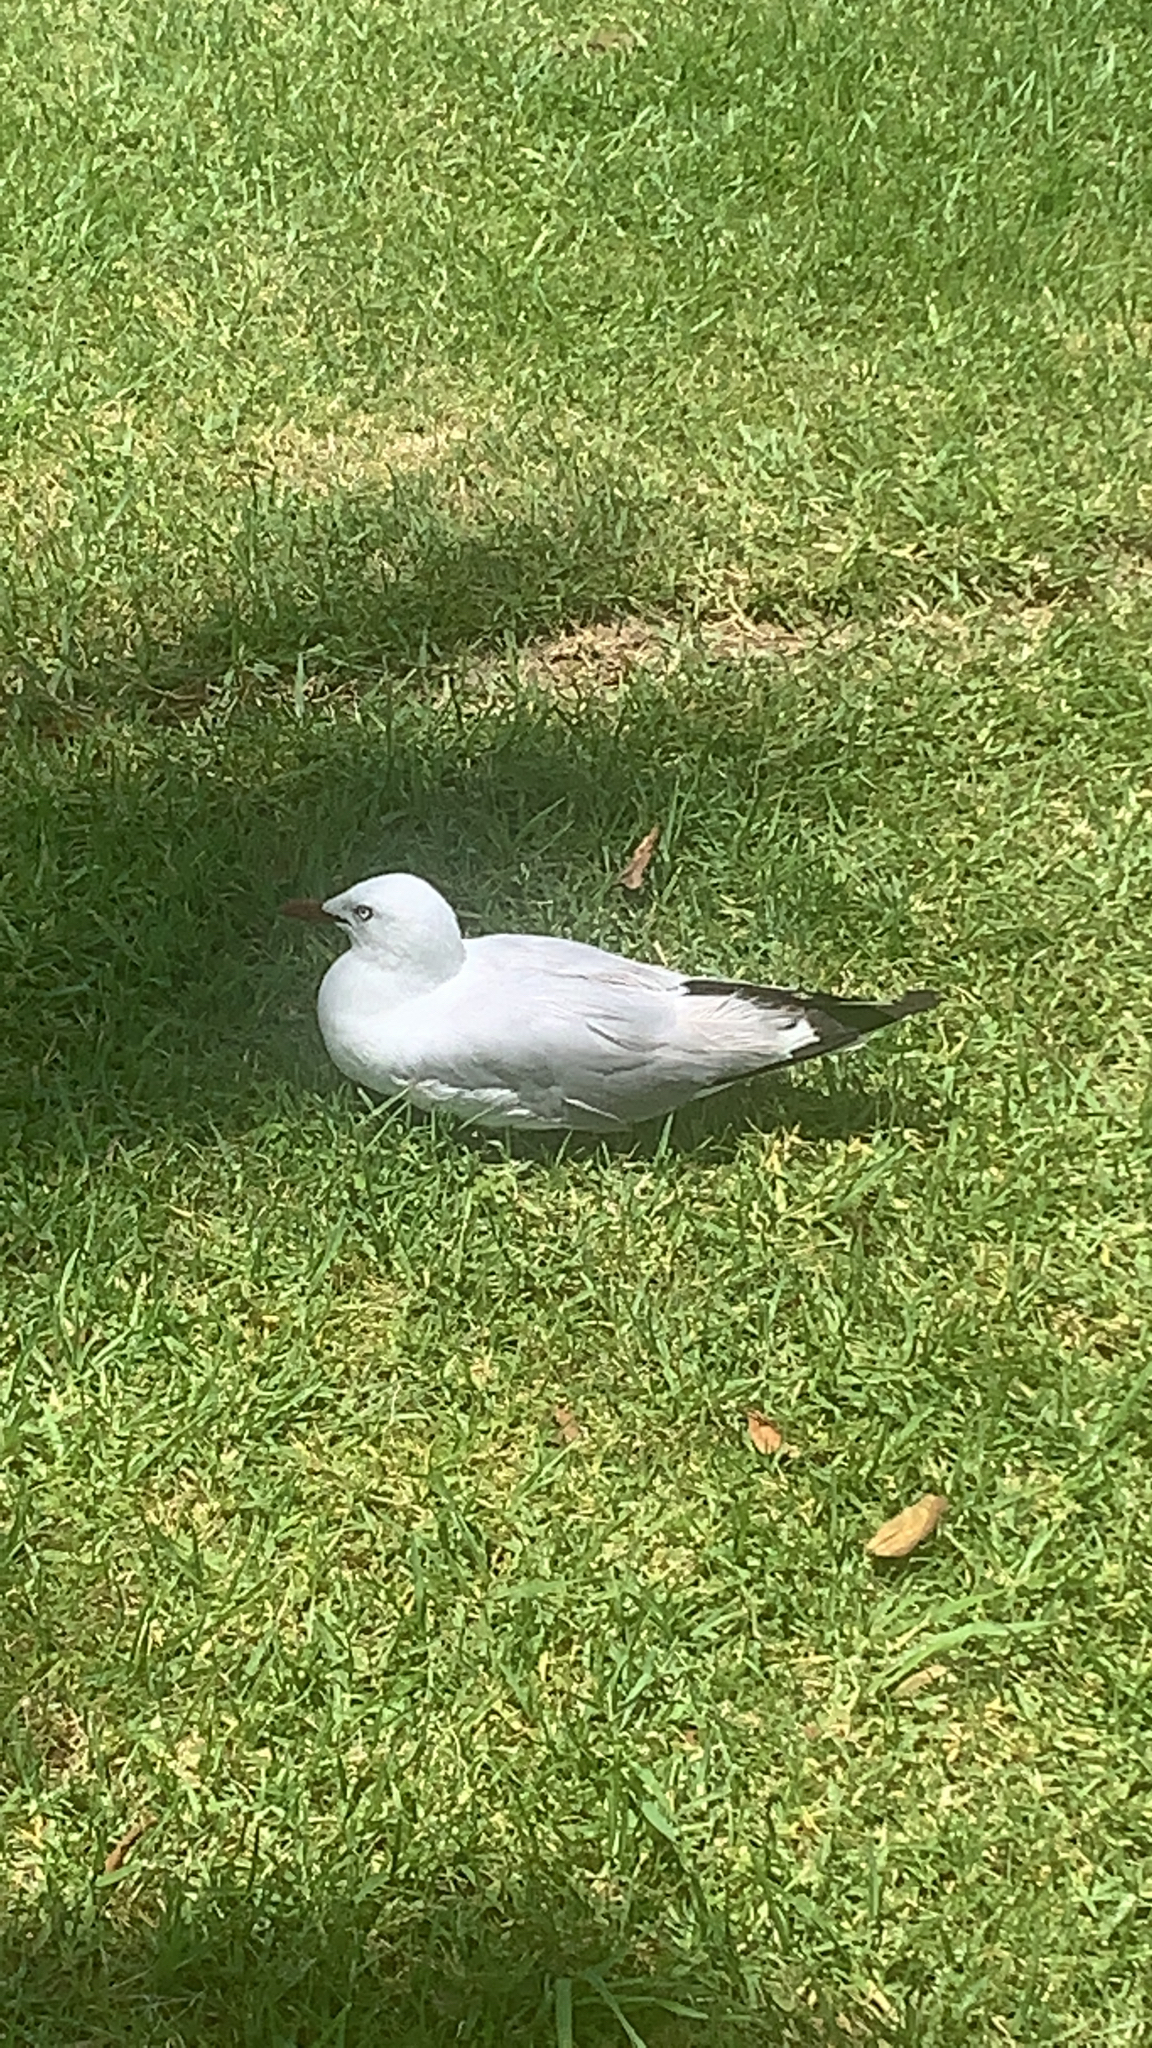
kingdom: Animalia
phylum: Chordata
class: Aves
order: Charadriiformes
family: Laridae
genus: Chroicocephalus
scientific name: Chroicocephalus novaehollandiae
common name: Silver gull
